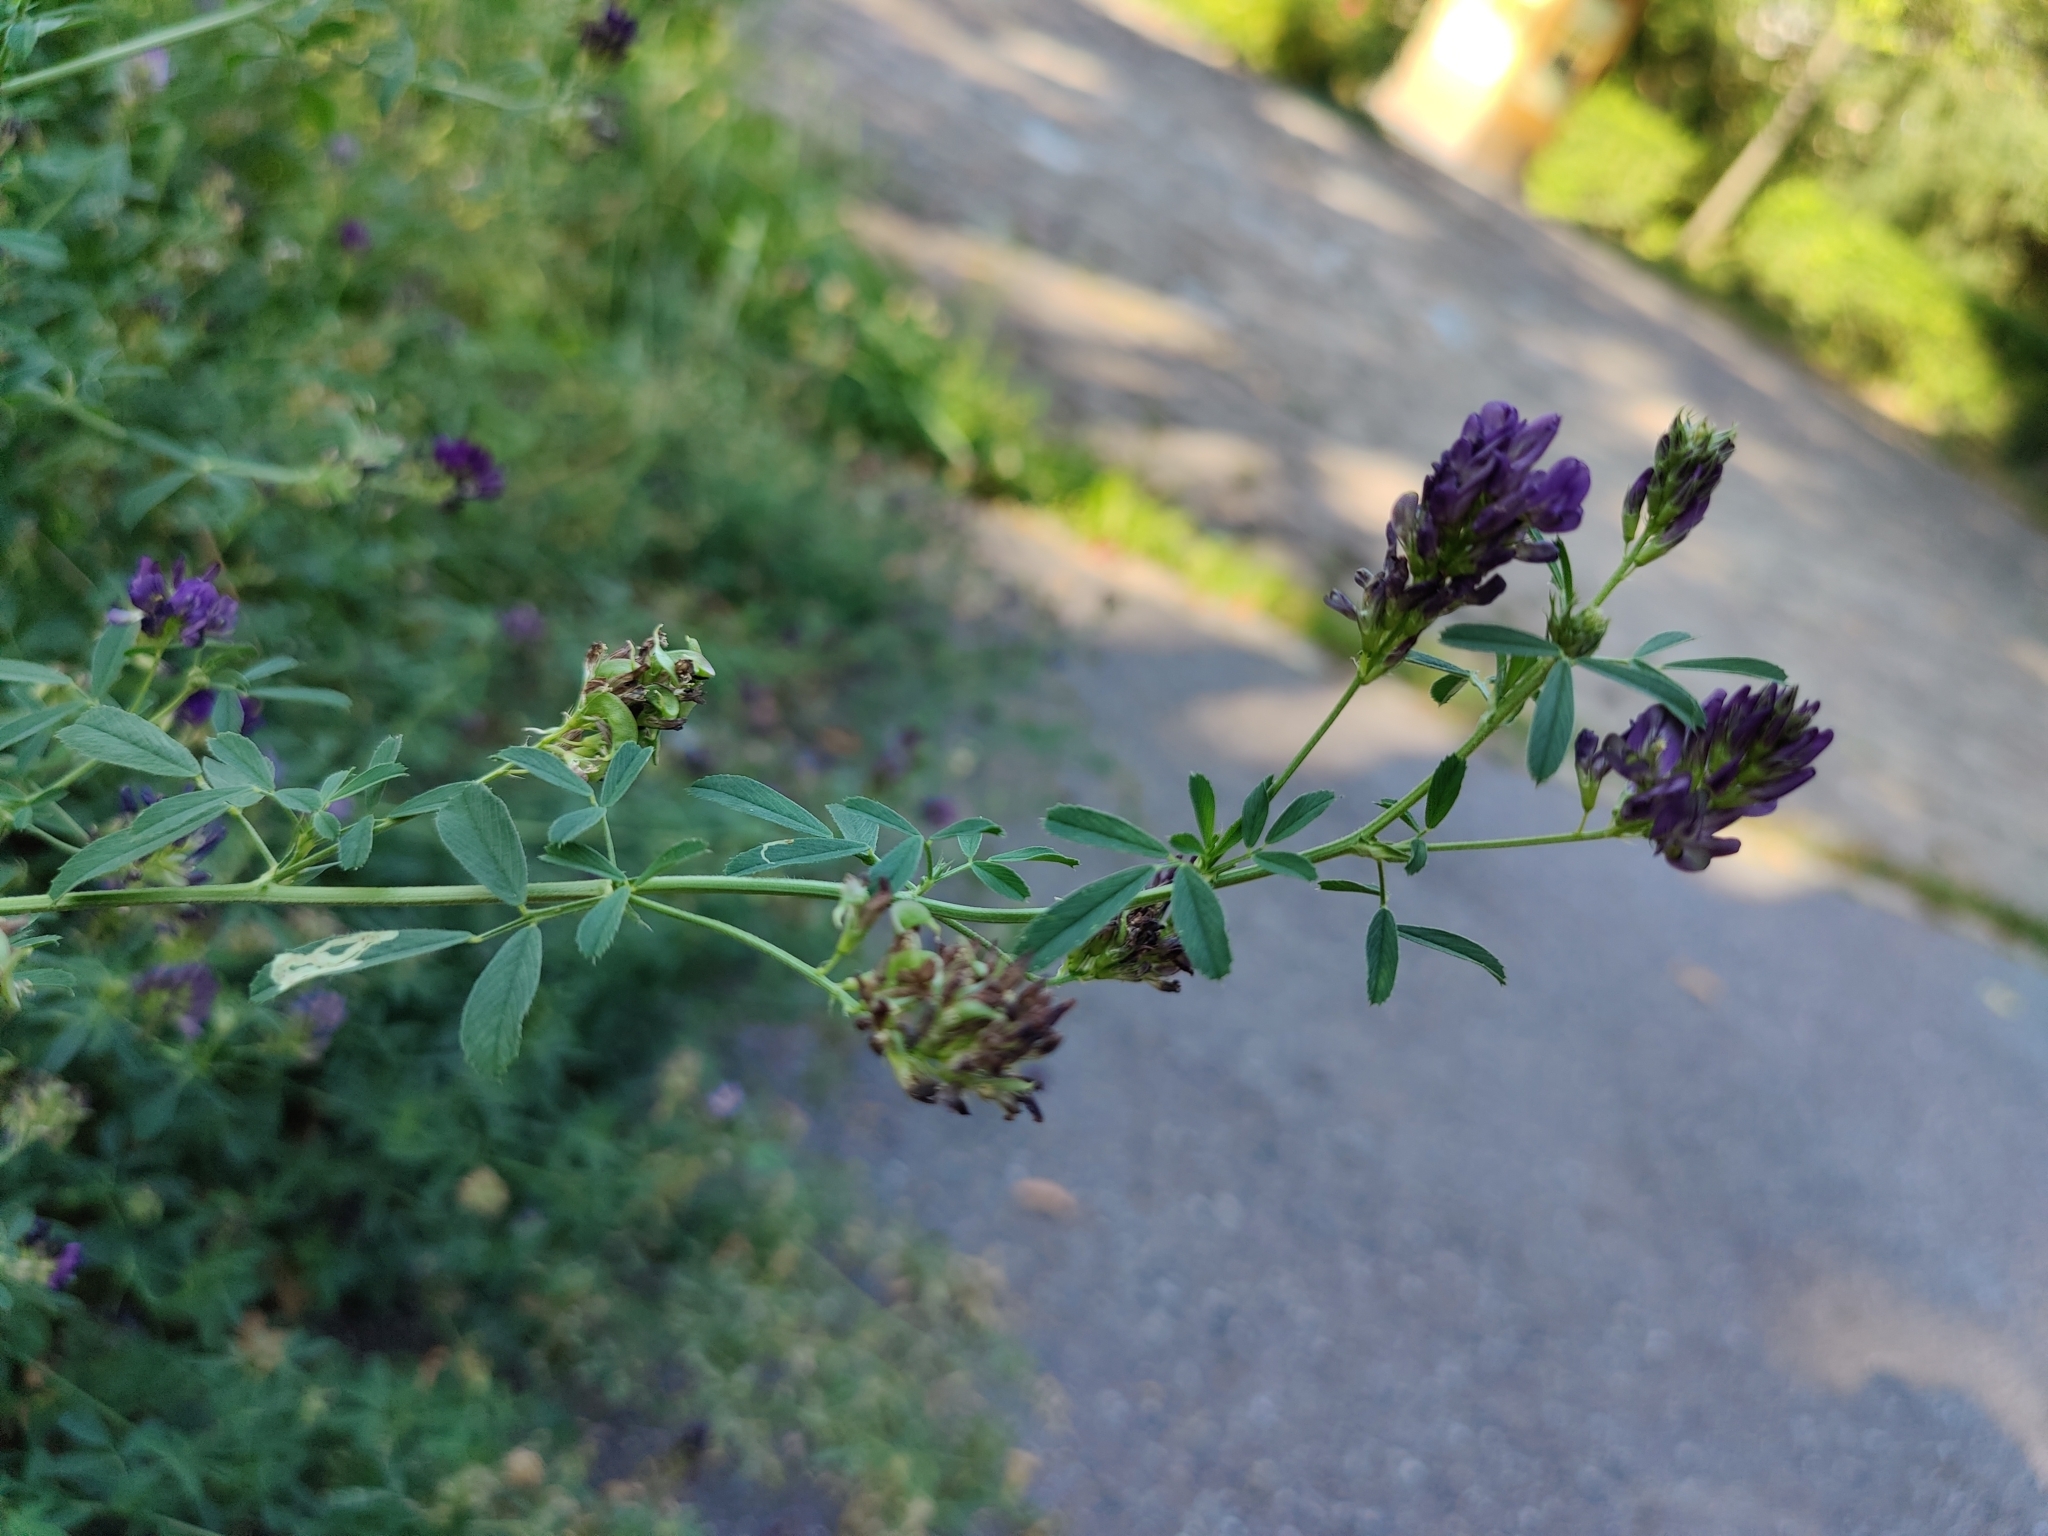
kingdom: Plantae
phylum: Tracheophyta
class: Magnoliopsida
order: Fabales
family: Fabaceae
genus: Medicago
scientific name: Medicago sativa
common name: Alfalfa
